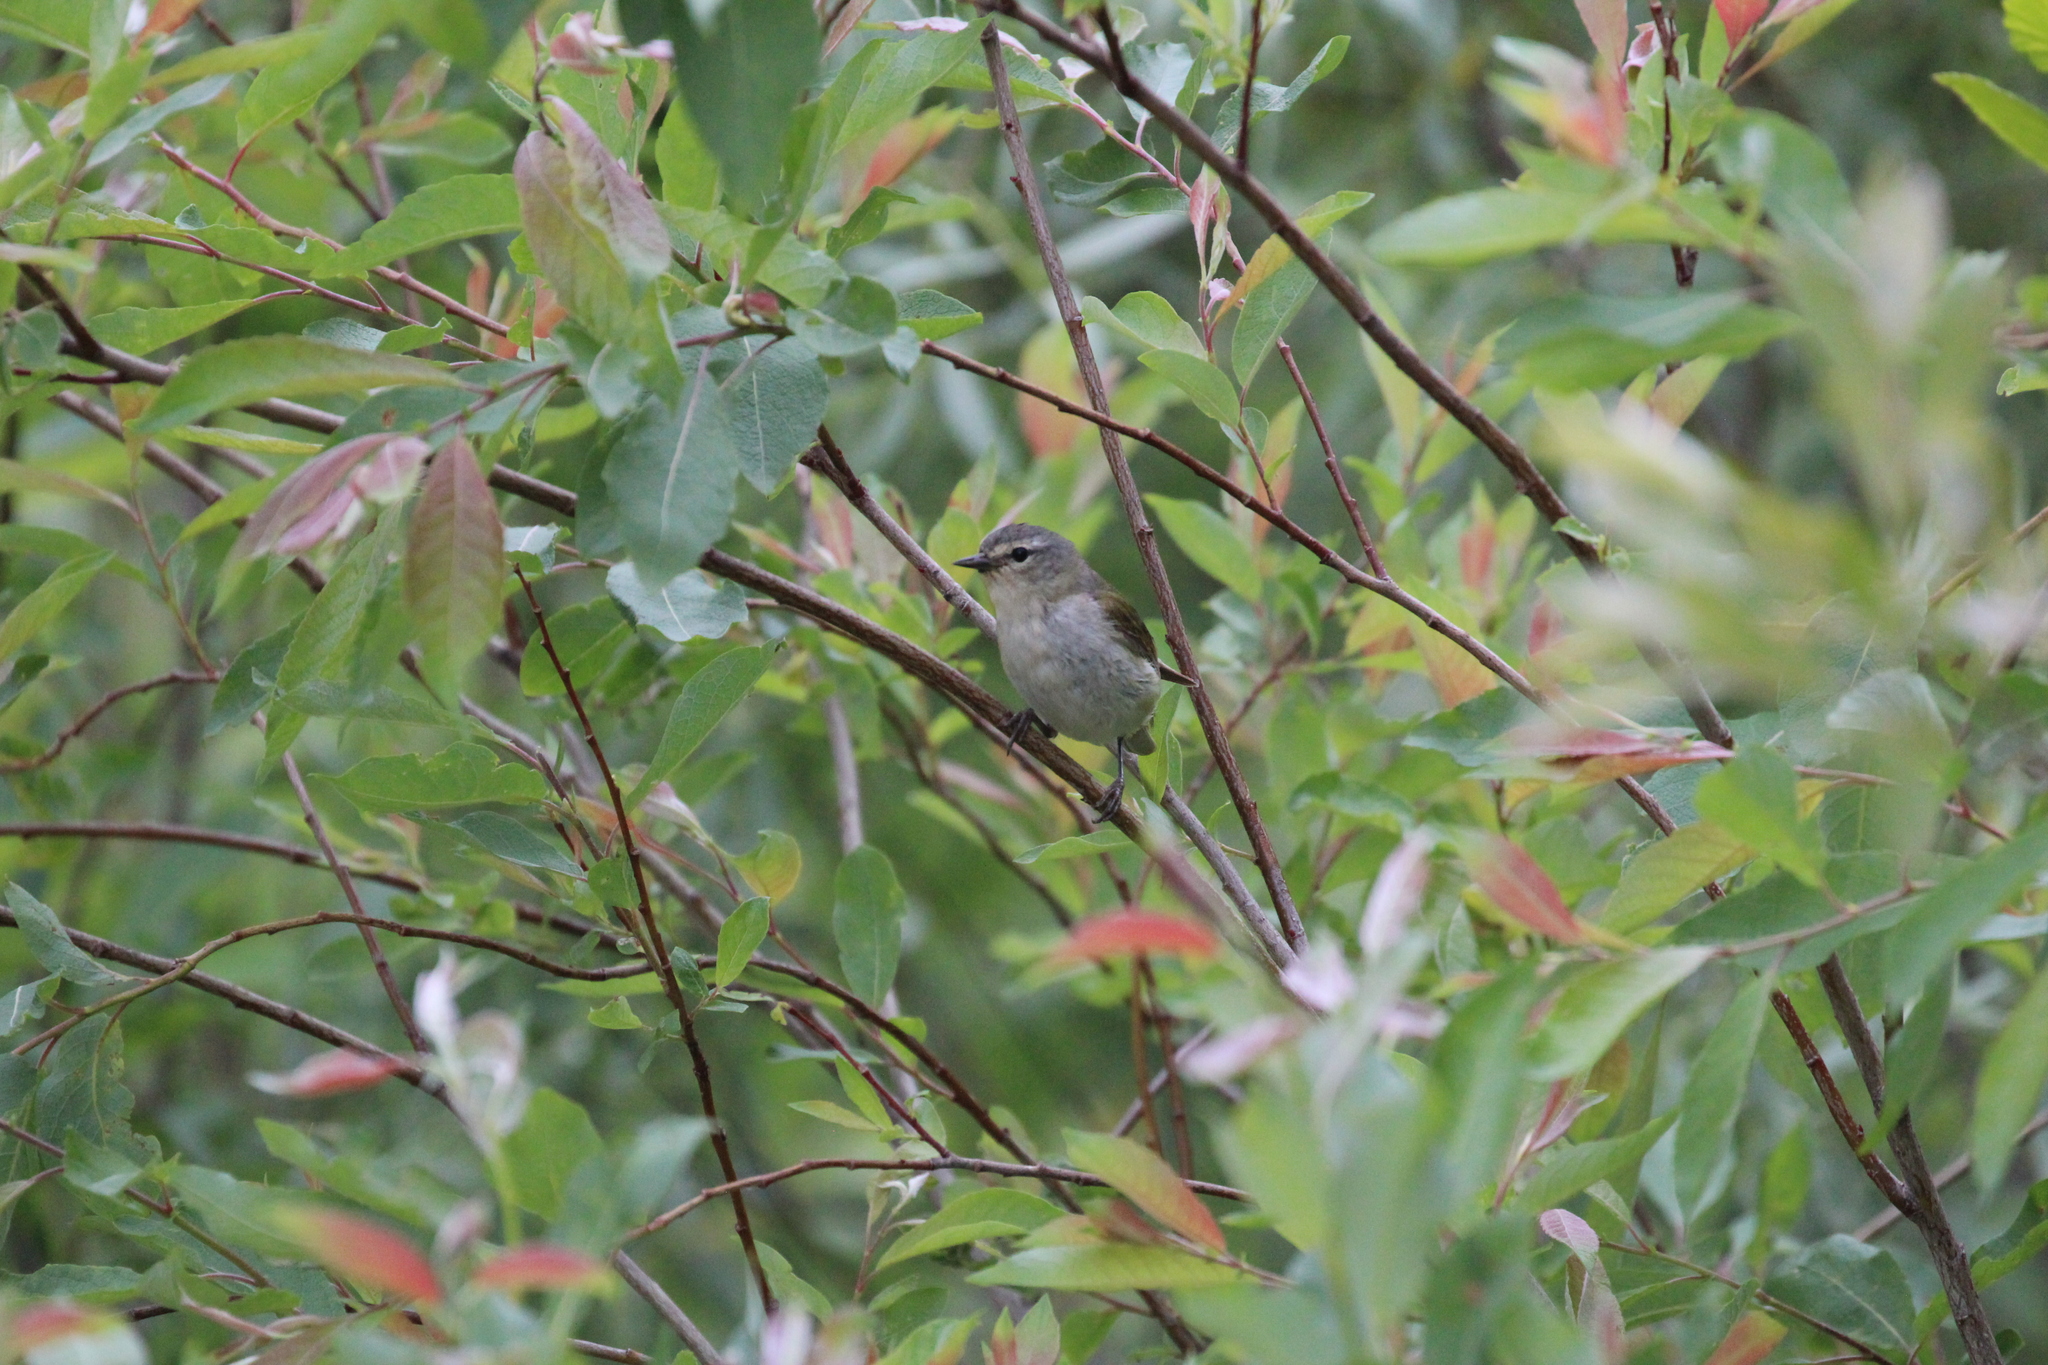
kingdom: Animalia
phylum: Chordata
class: Aves
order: Passeriformes
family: Parulidae
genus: Leiothlypis
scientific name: Leiothlypis peregrina
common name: Tennessee warbler
